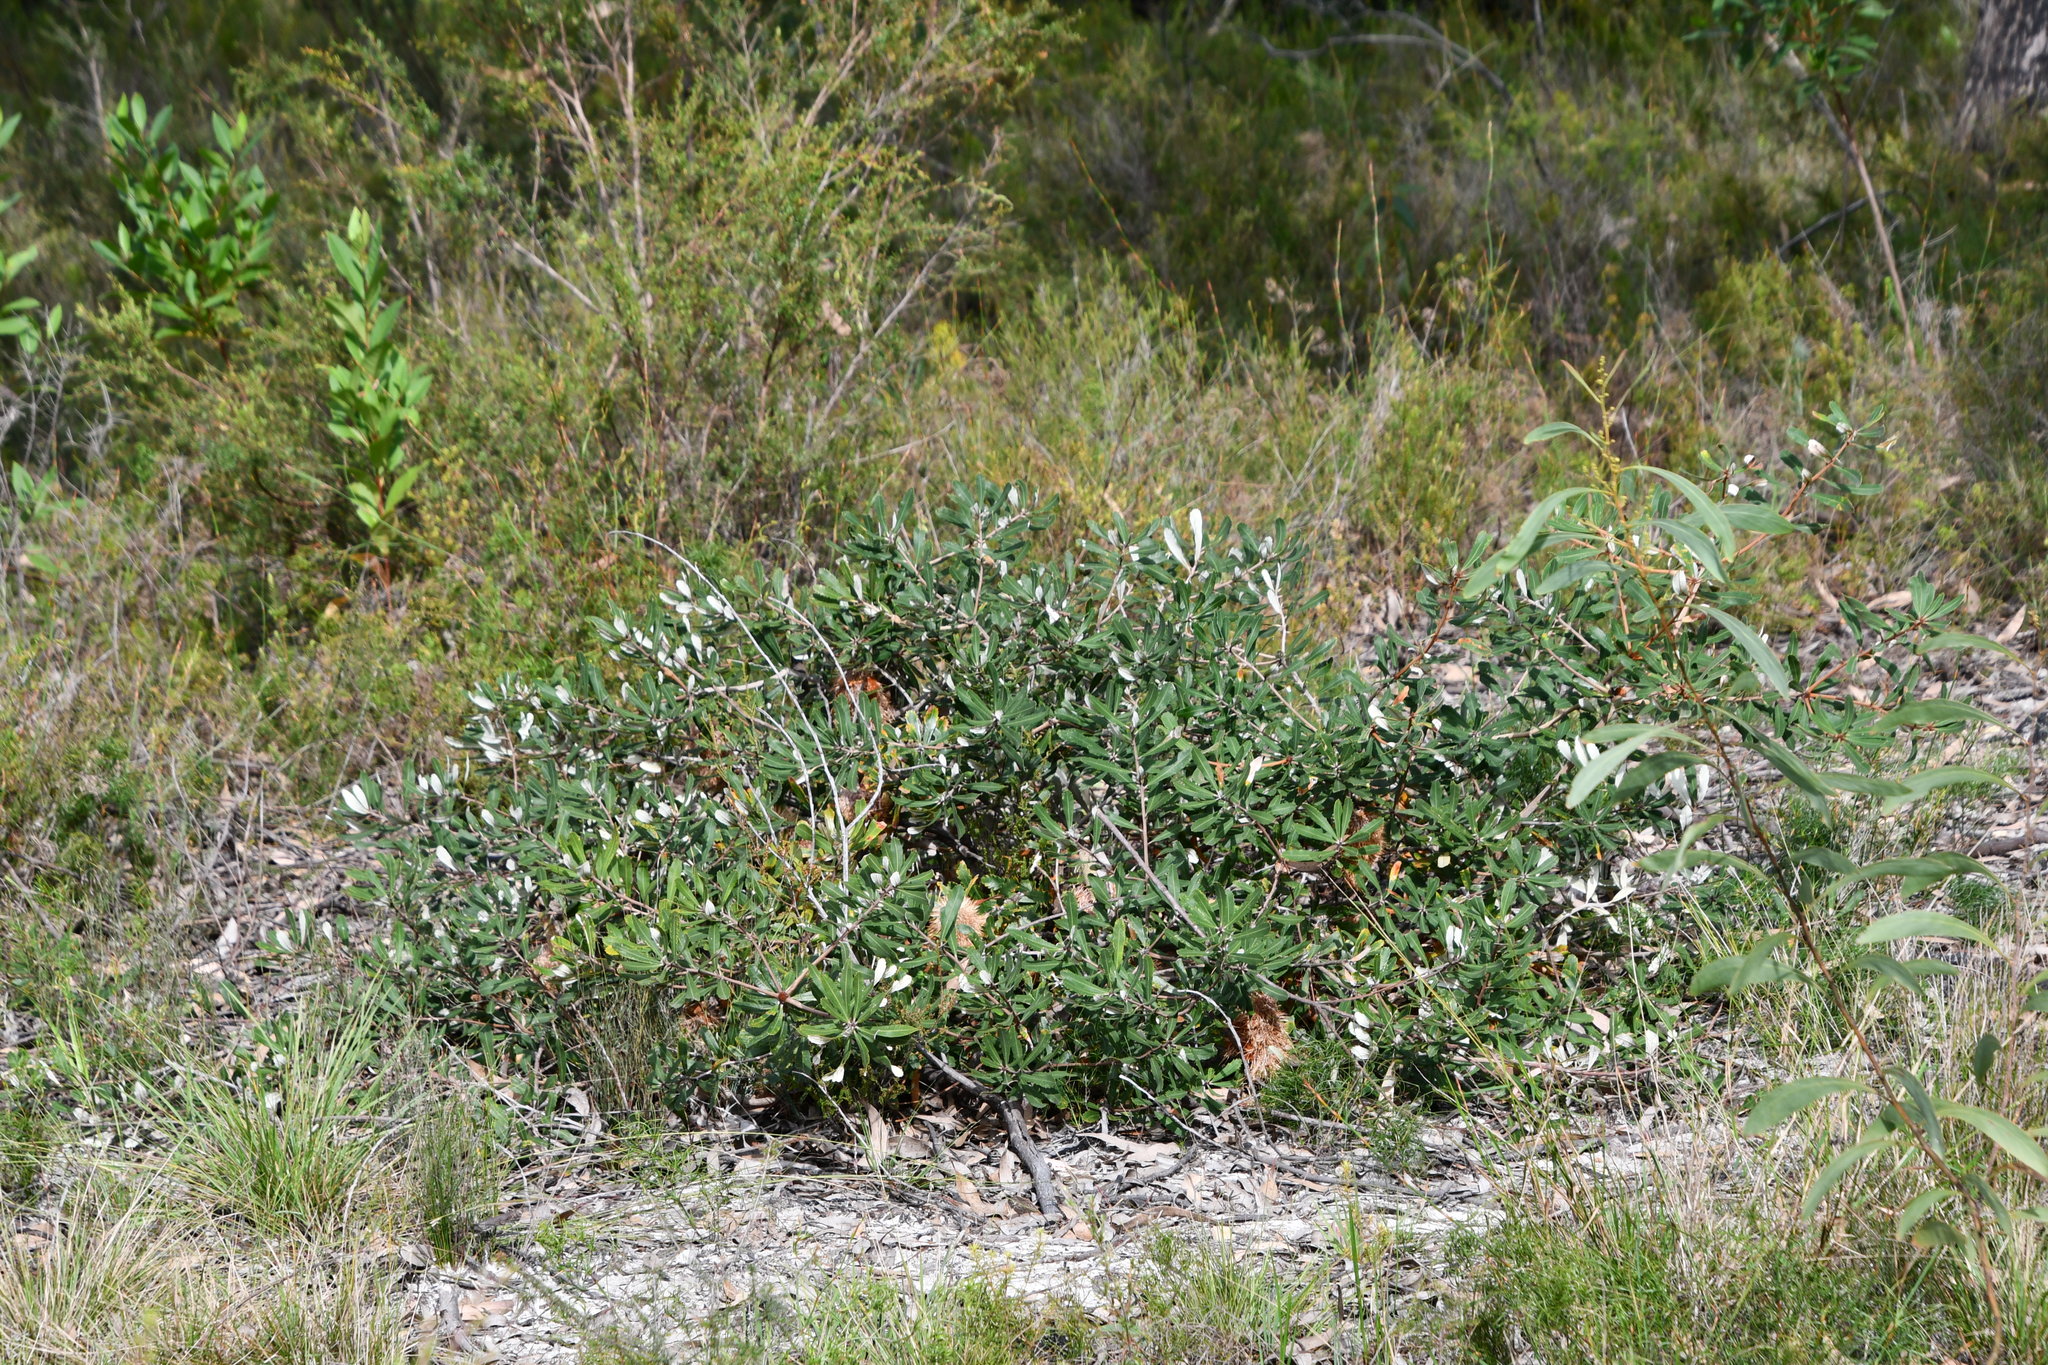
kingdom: Plantae
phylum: Tracheophyta
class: Magnoliopsida
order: Proteales
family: Proteaceae
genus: Banksia
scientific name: Banksia integrifolia
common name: White-honeysuckle
